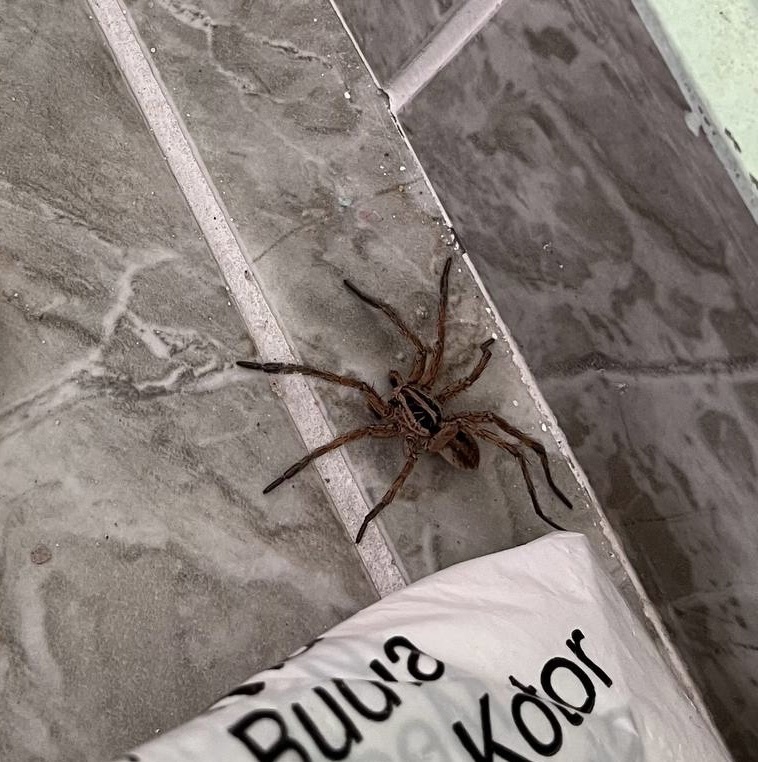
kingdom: Animalia
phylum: Arthropoda
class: Arachnida
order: Araneae
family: Lycosidae
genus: Hogna
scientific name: Hogna radiata
